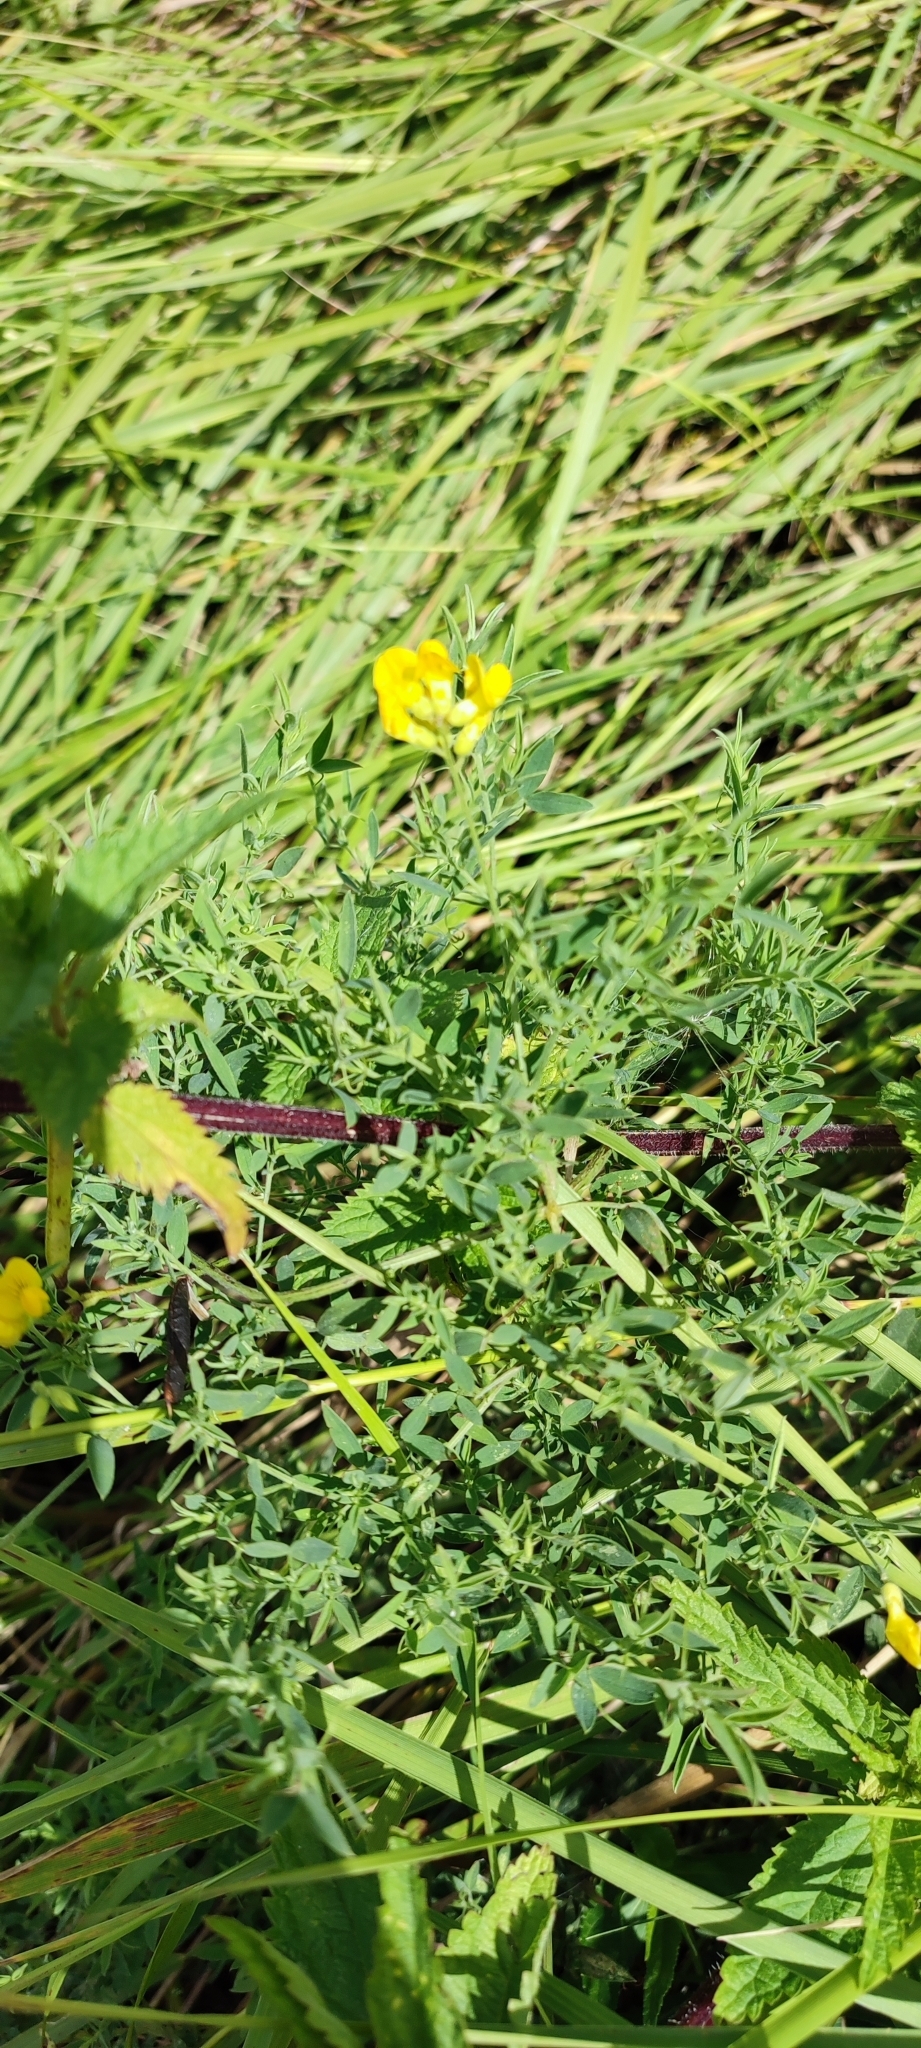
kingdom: Plantae
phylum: Tracheophyta
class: Magnoliopsida
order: Fabales
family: Fabaceae
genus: Lathyrus
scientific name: Lathyrus pratensis
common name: Meadow vetchling
